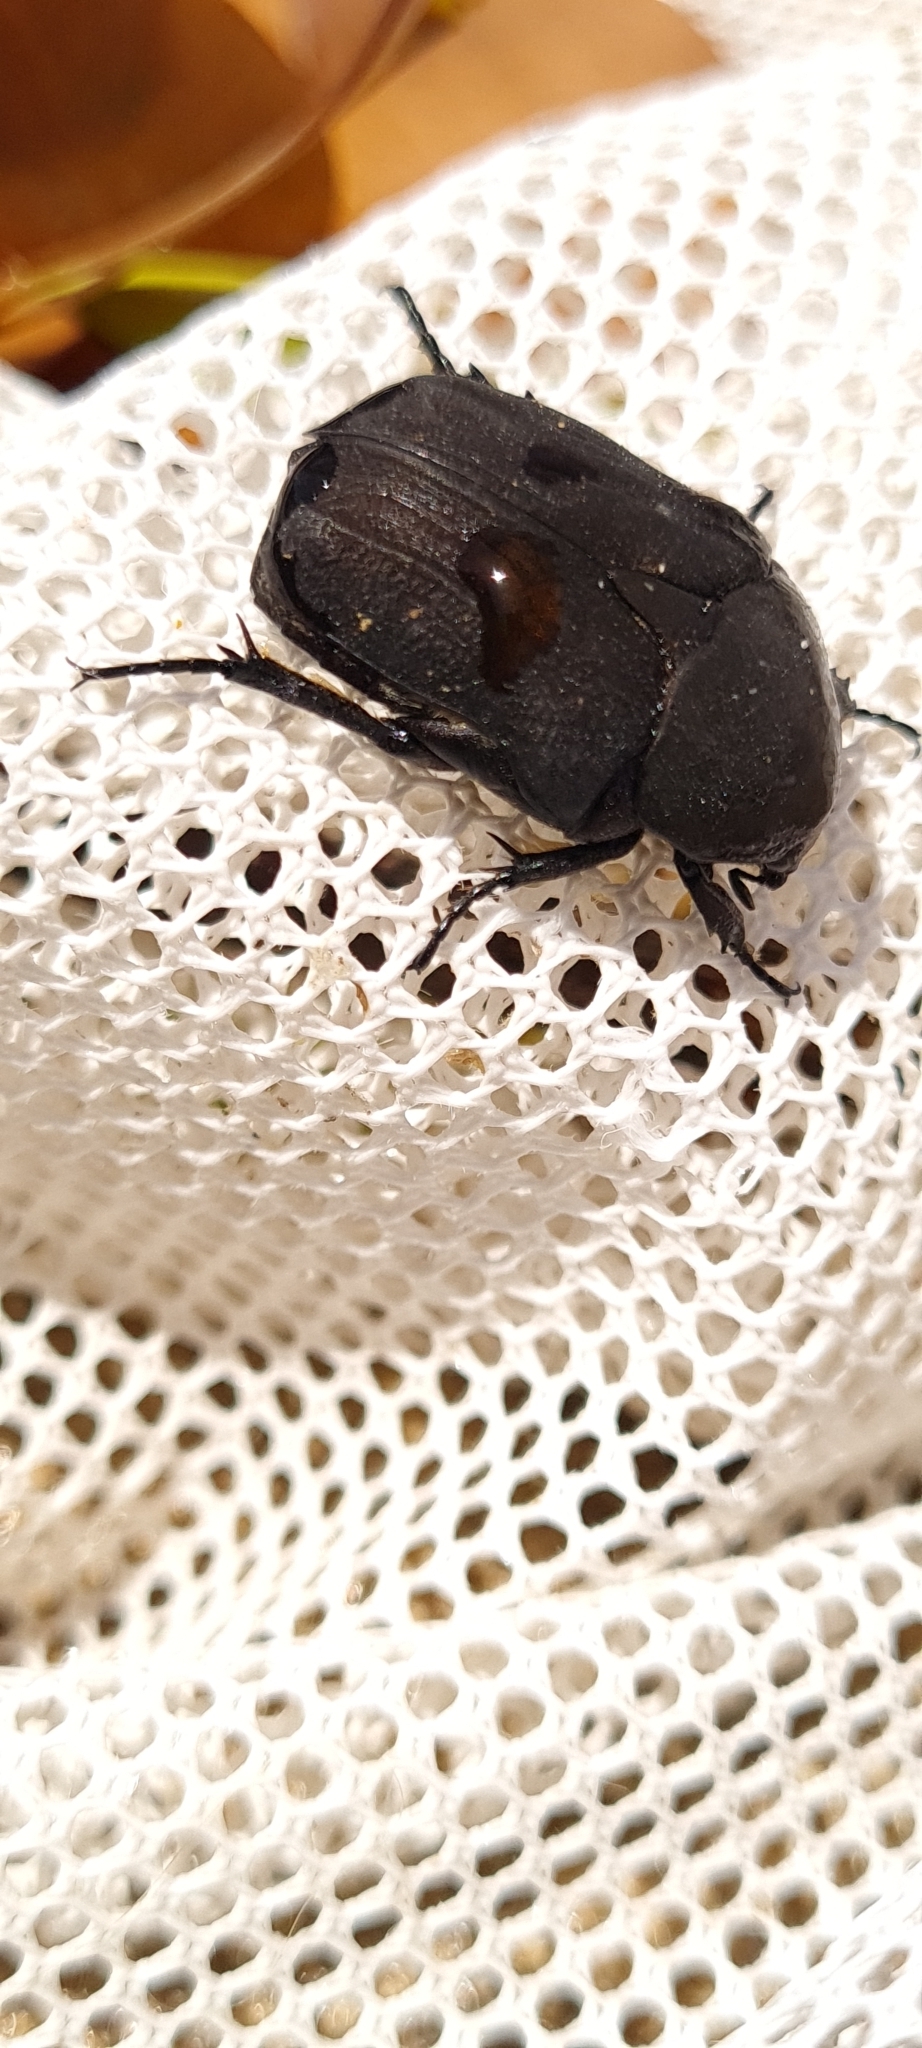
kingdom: Animalia
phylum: Arthropoda
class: Insecta
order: Coleoptera
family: Scarabaeidae
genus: Protaetia
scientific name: Protaetia morio
